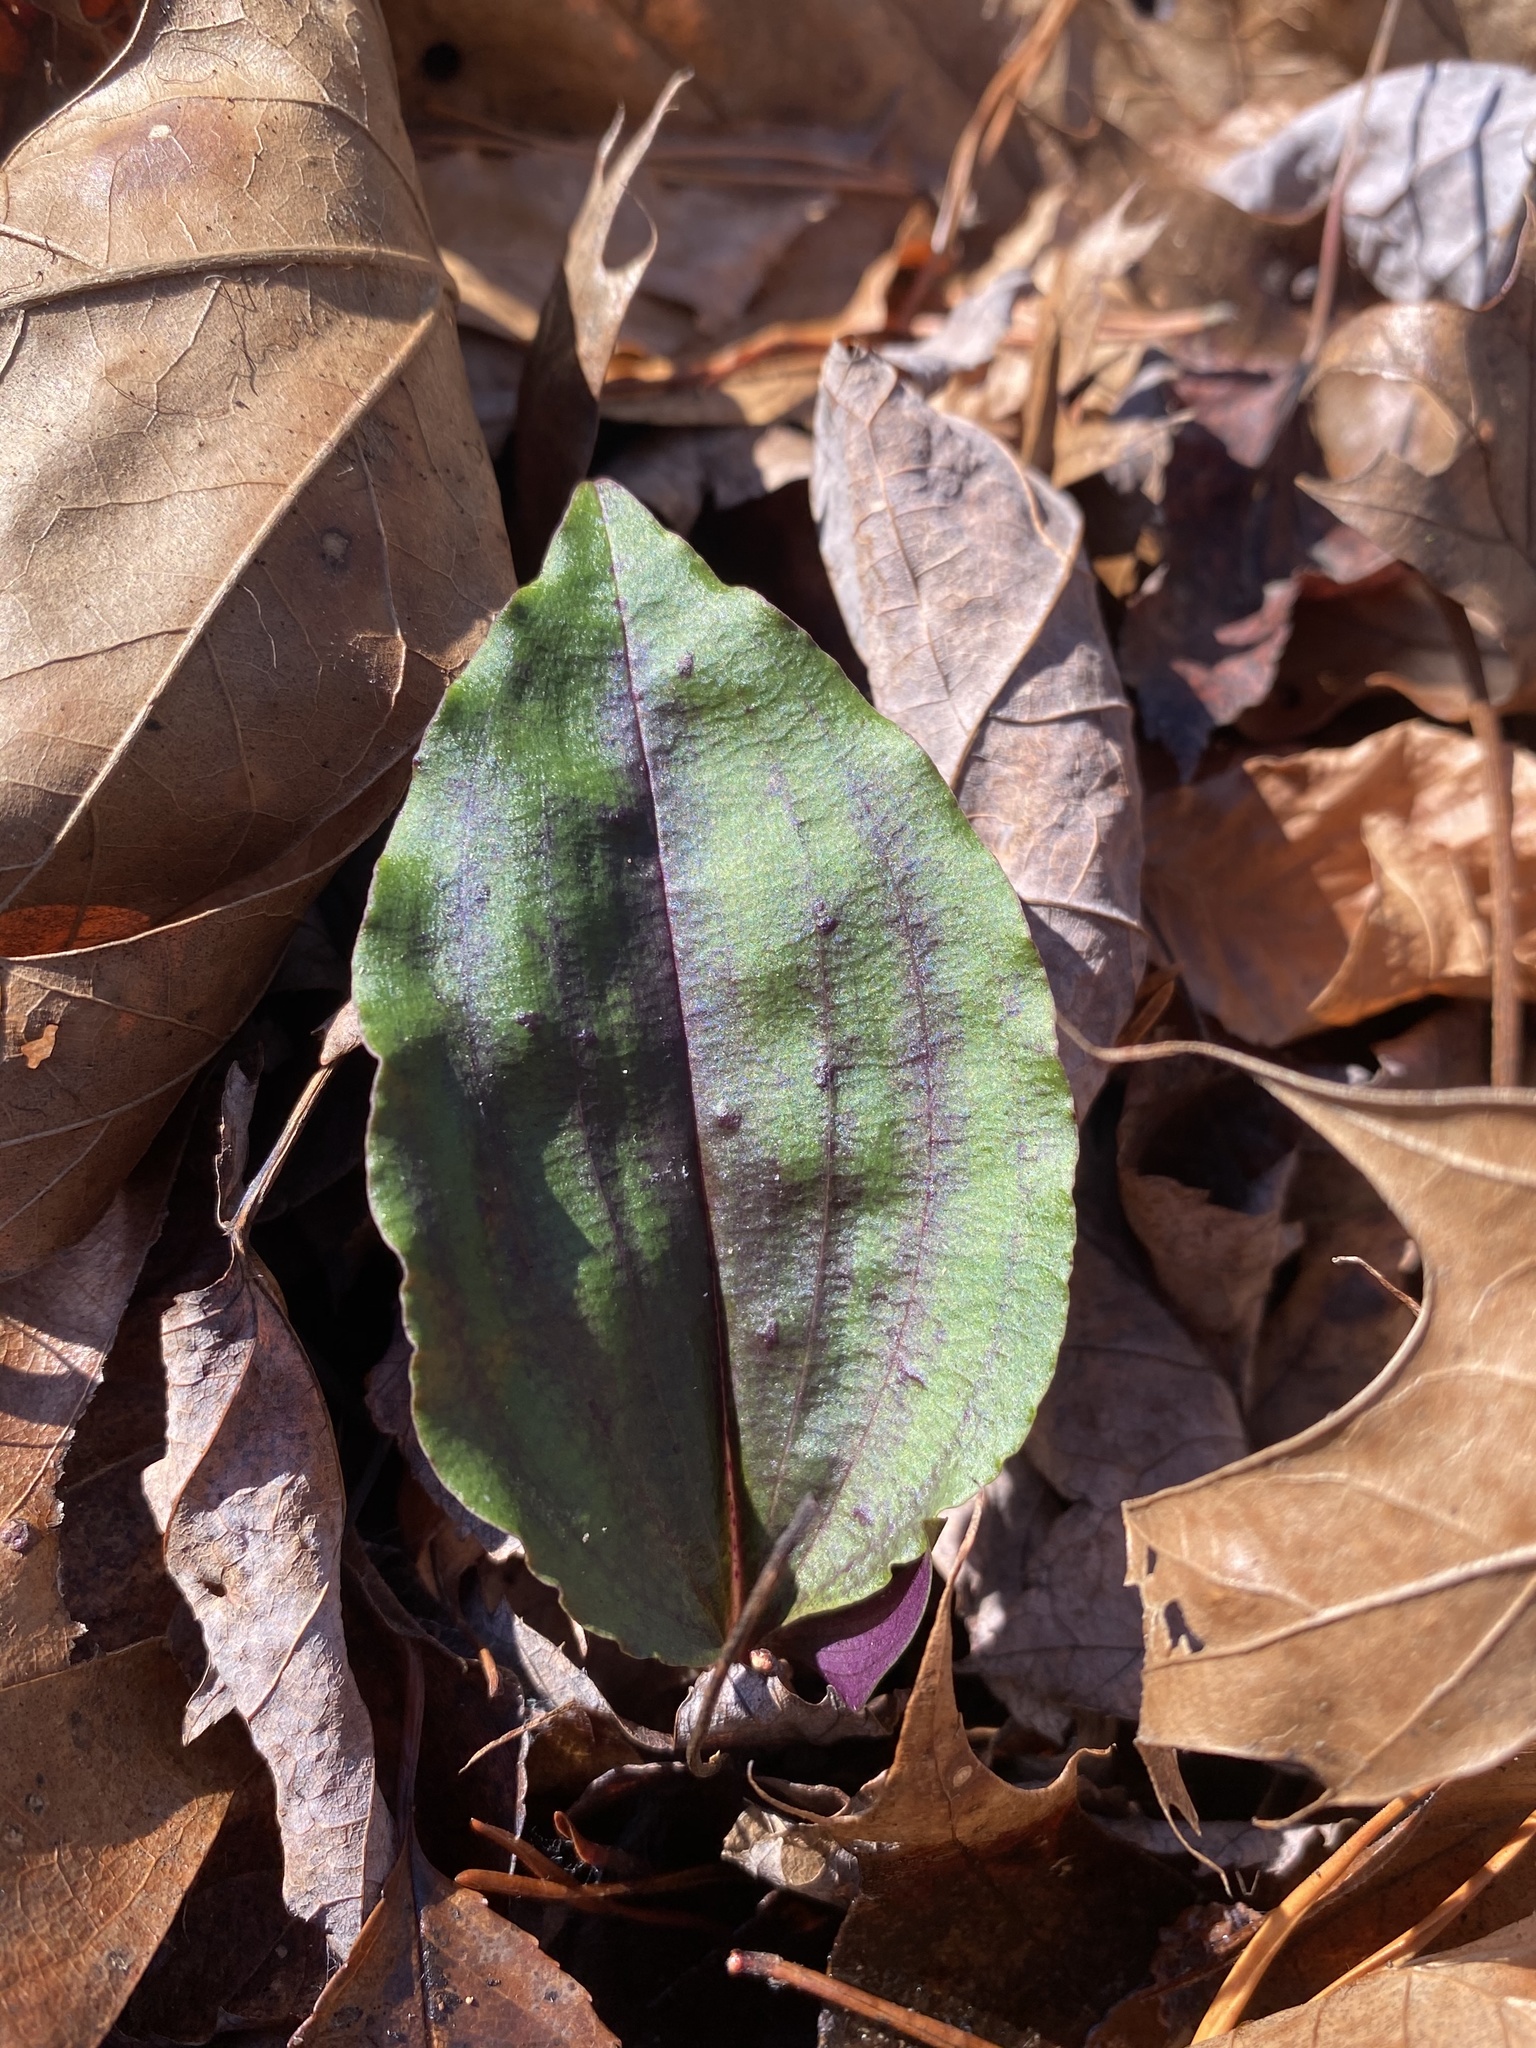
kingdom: Plantae
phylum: Tracheophyta
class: Liliopsida
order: Asparagales
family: Orchidaceae
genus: Tipularia
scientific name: Tipularia discolor
